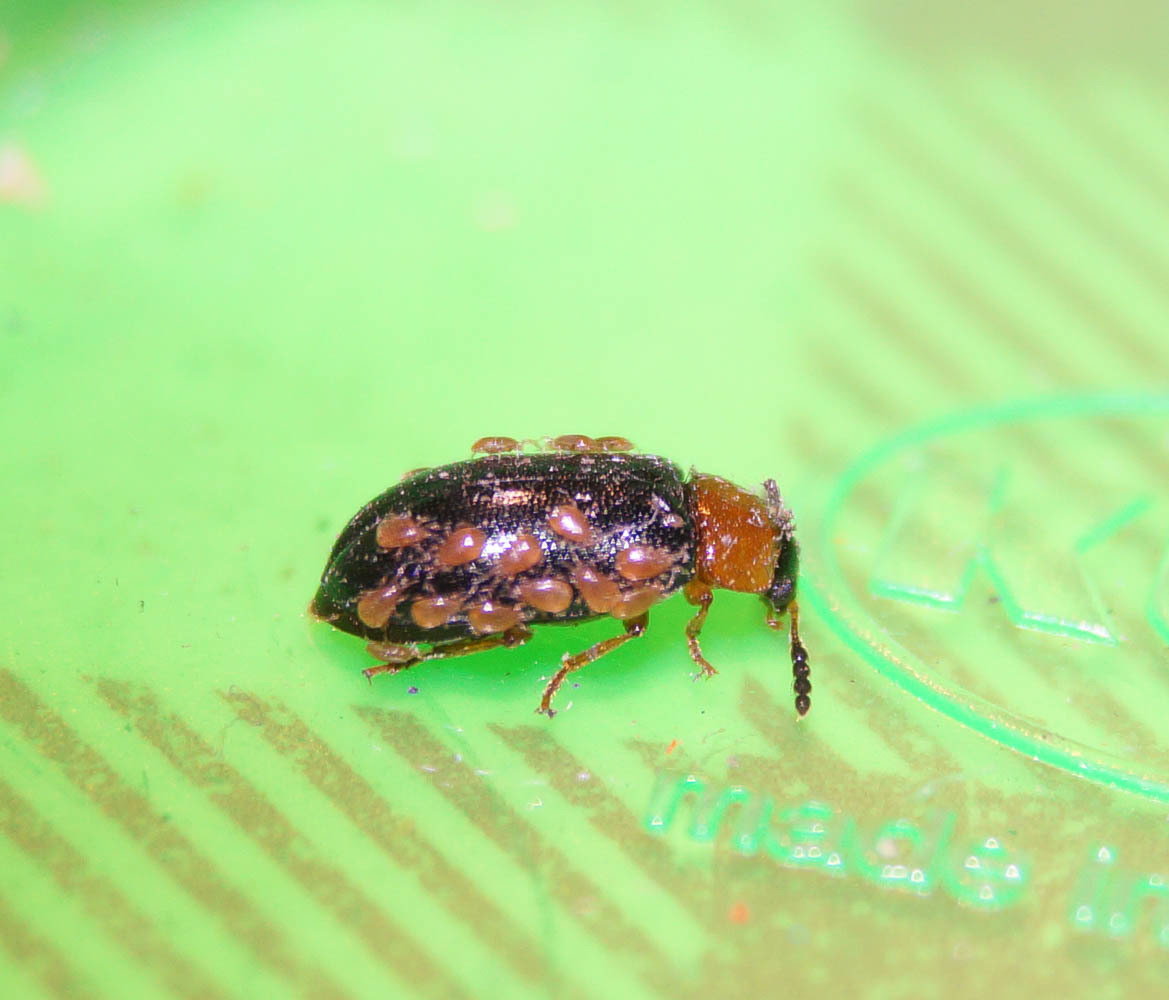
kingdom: Animalia
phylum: Arthropoda
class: Insecta
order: Coleoptera
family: Tetratomidae
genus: Tetratoma
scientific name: Tetratoma fungorum
